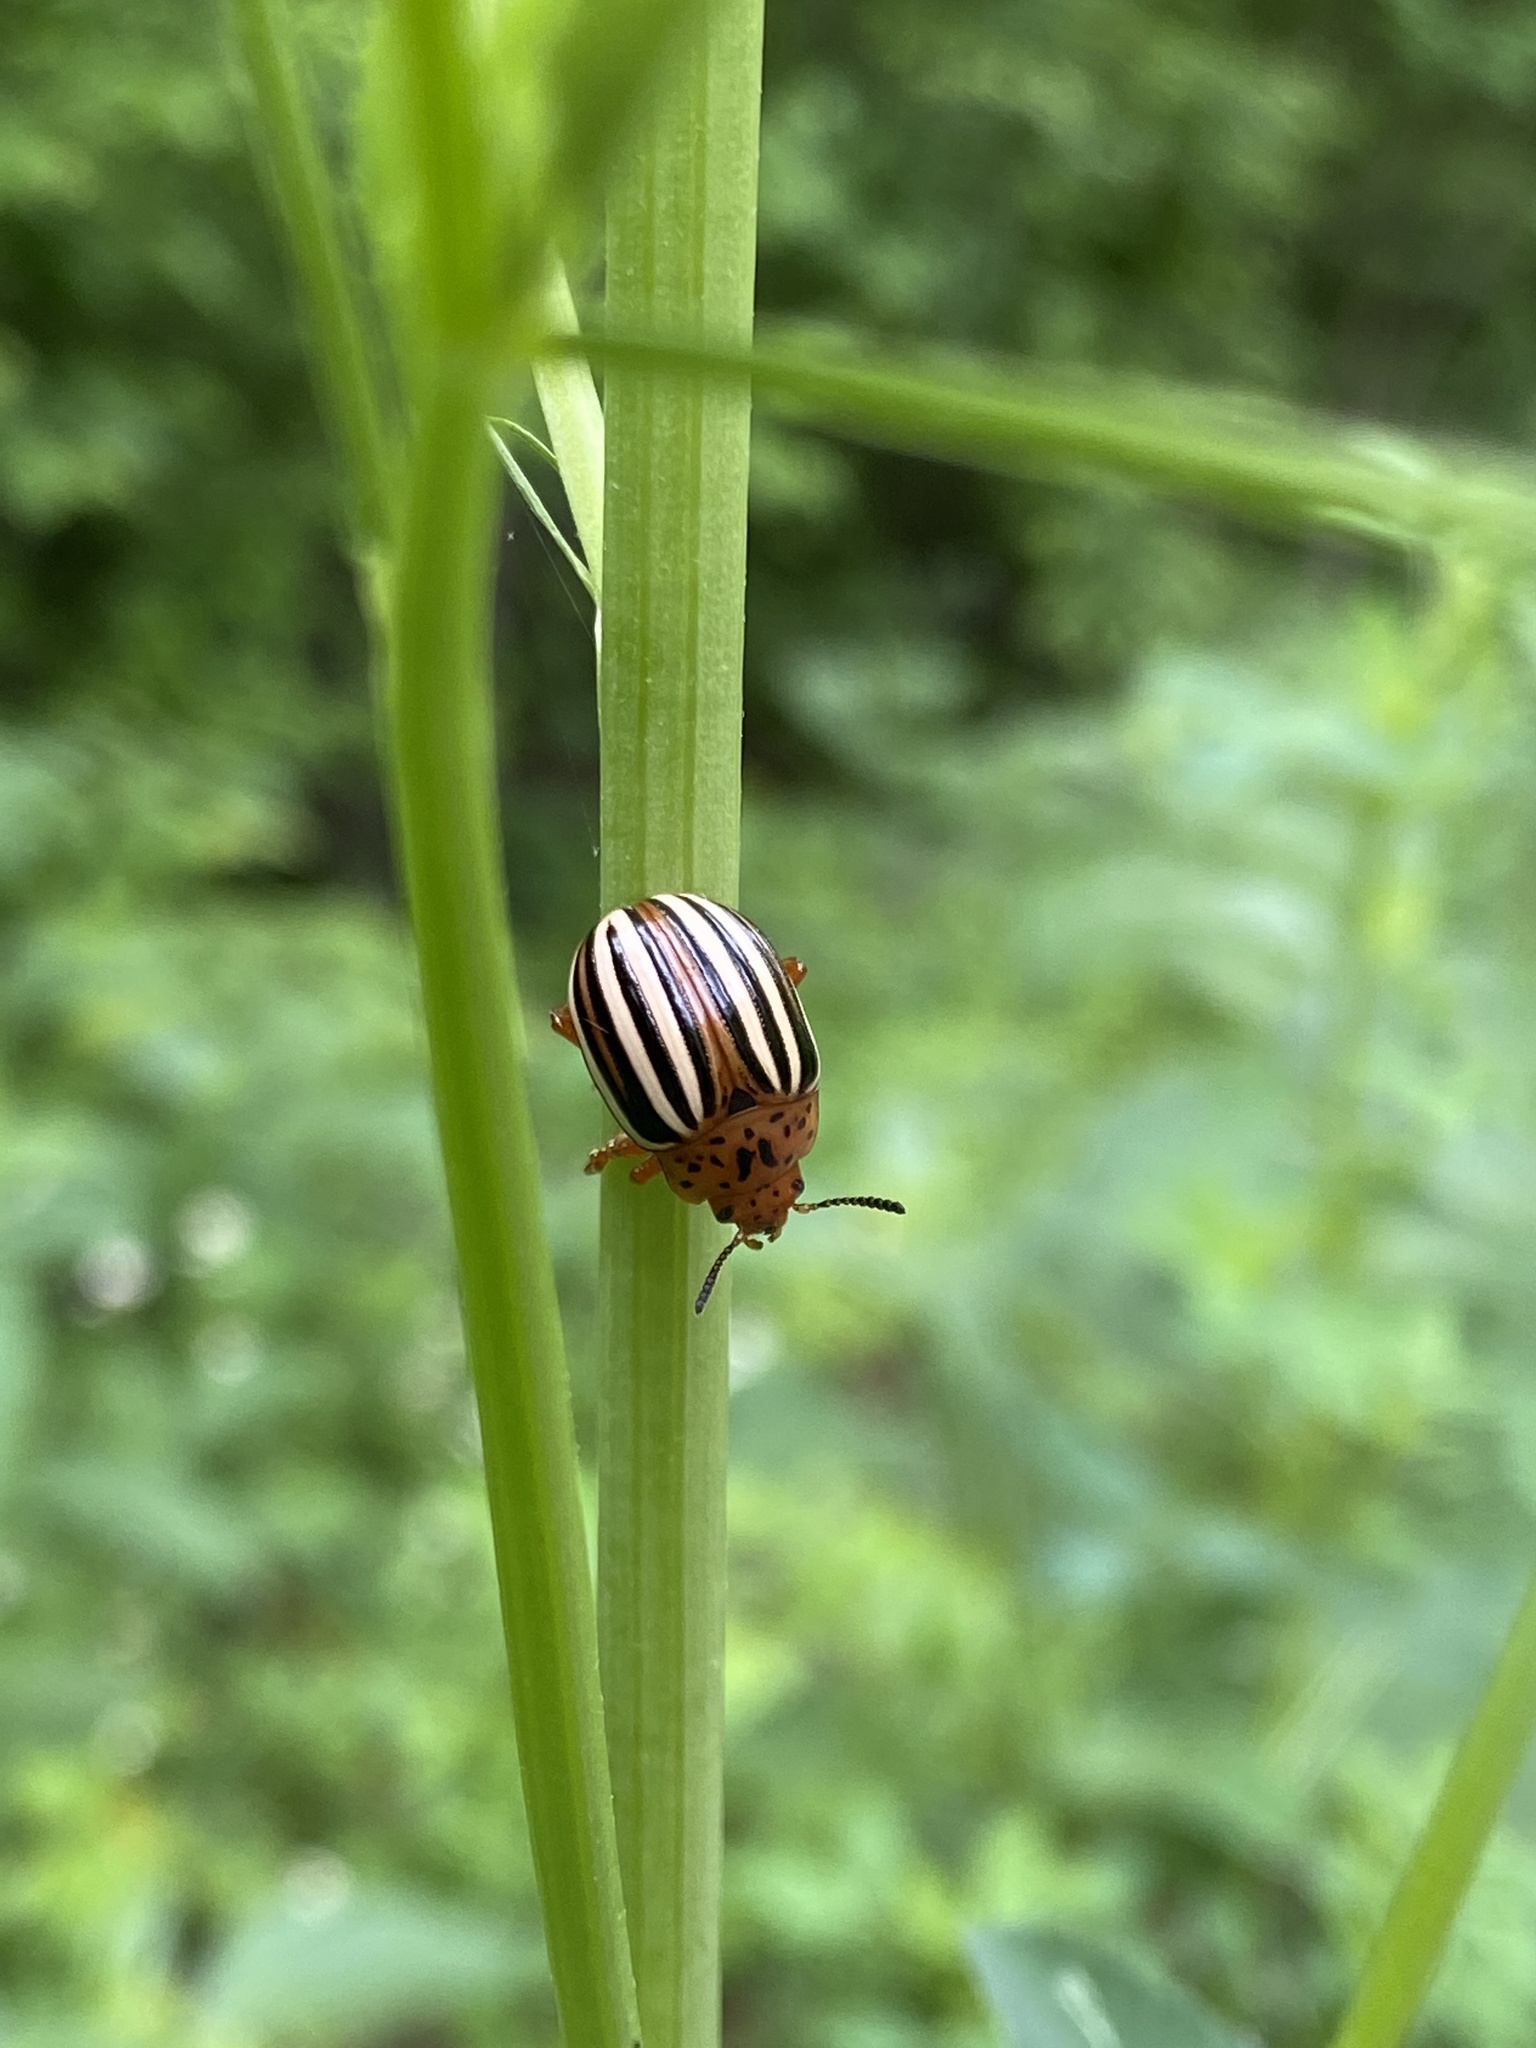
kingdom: Animalia
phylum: Arthropoda
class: Insecta
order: Coleoptera
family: Chrysomelidae
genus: Leptinotarsa
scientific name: Leptinotarsa juncta
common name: False potato beetle
